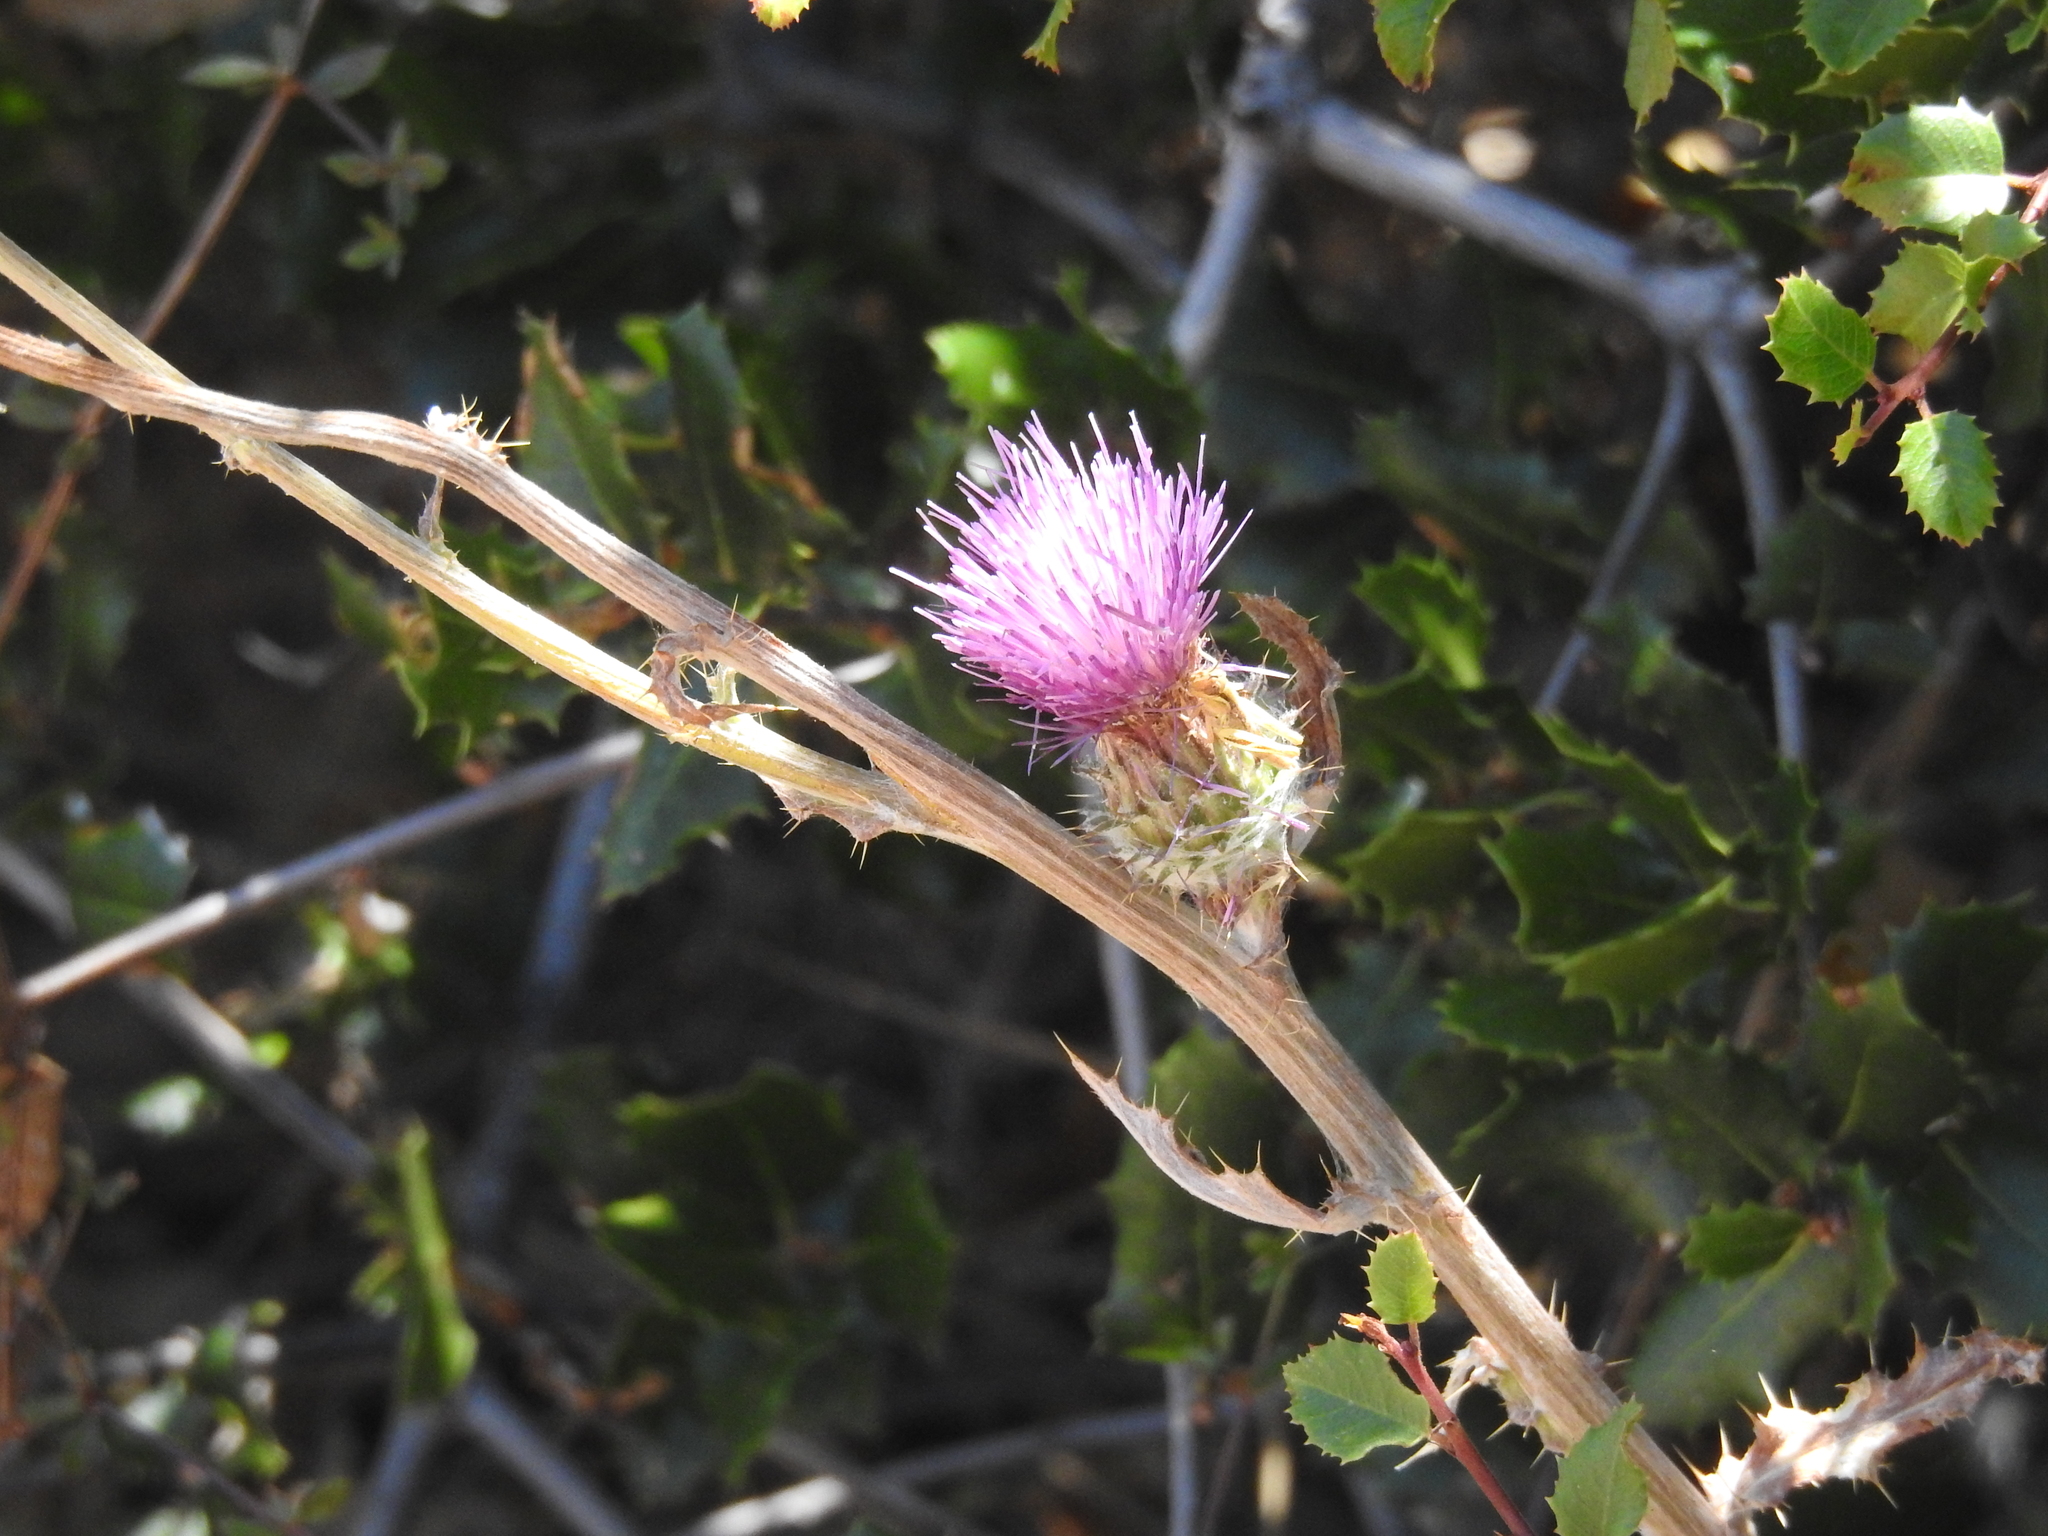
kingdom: Plantae
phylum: Tracheophyta
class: Magnoliopsida
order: Asterales
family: Asteraceae
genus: Cirsium
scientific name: Cirsium occidentale
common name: Western thistle
